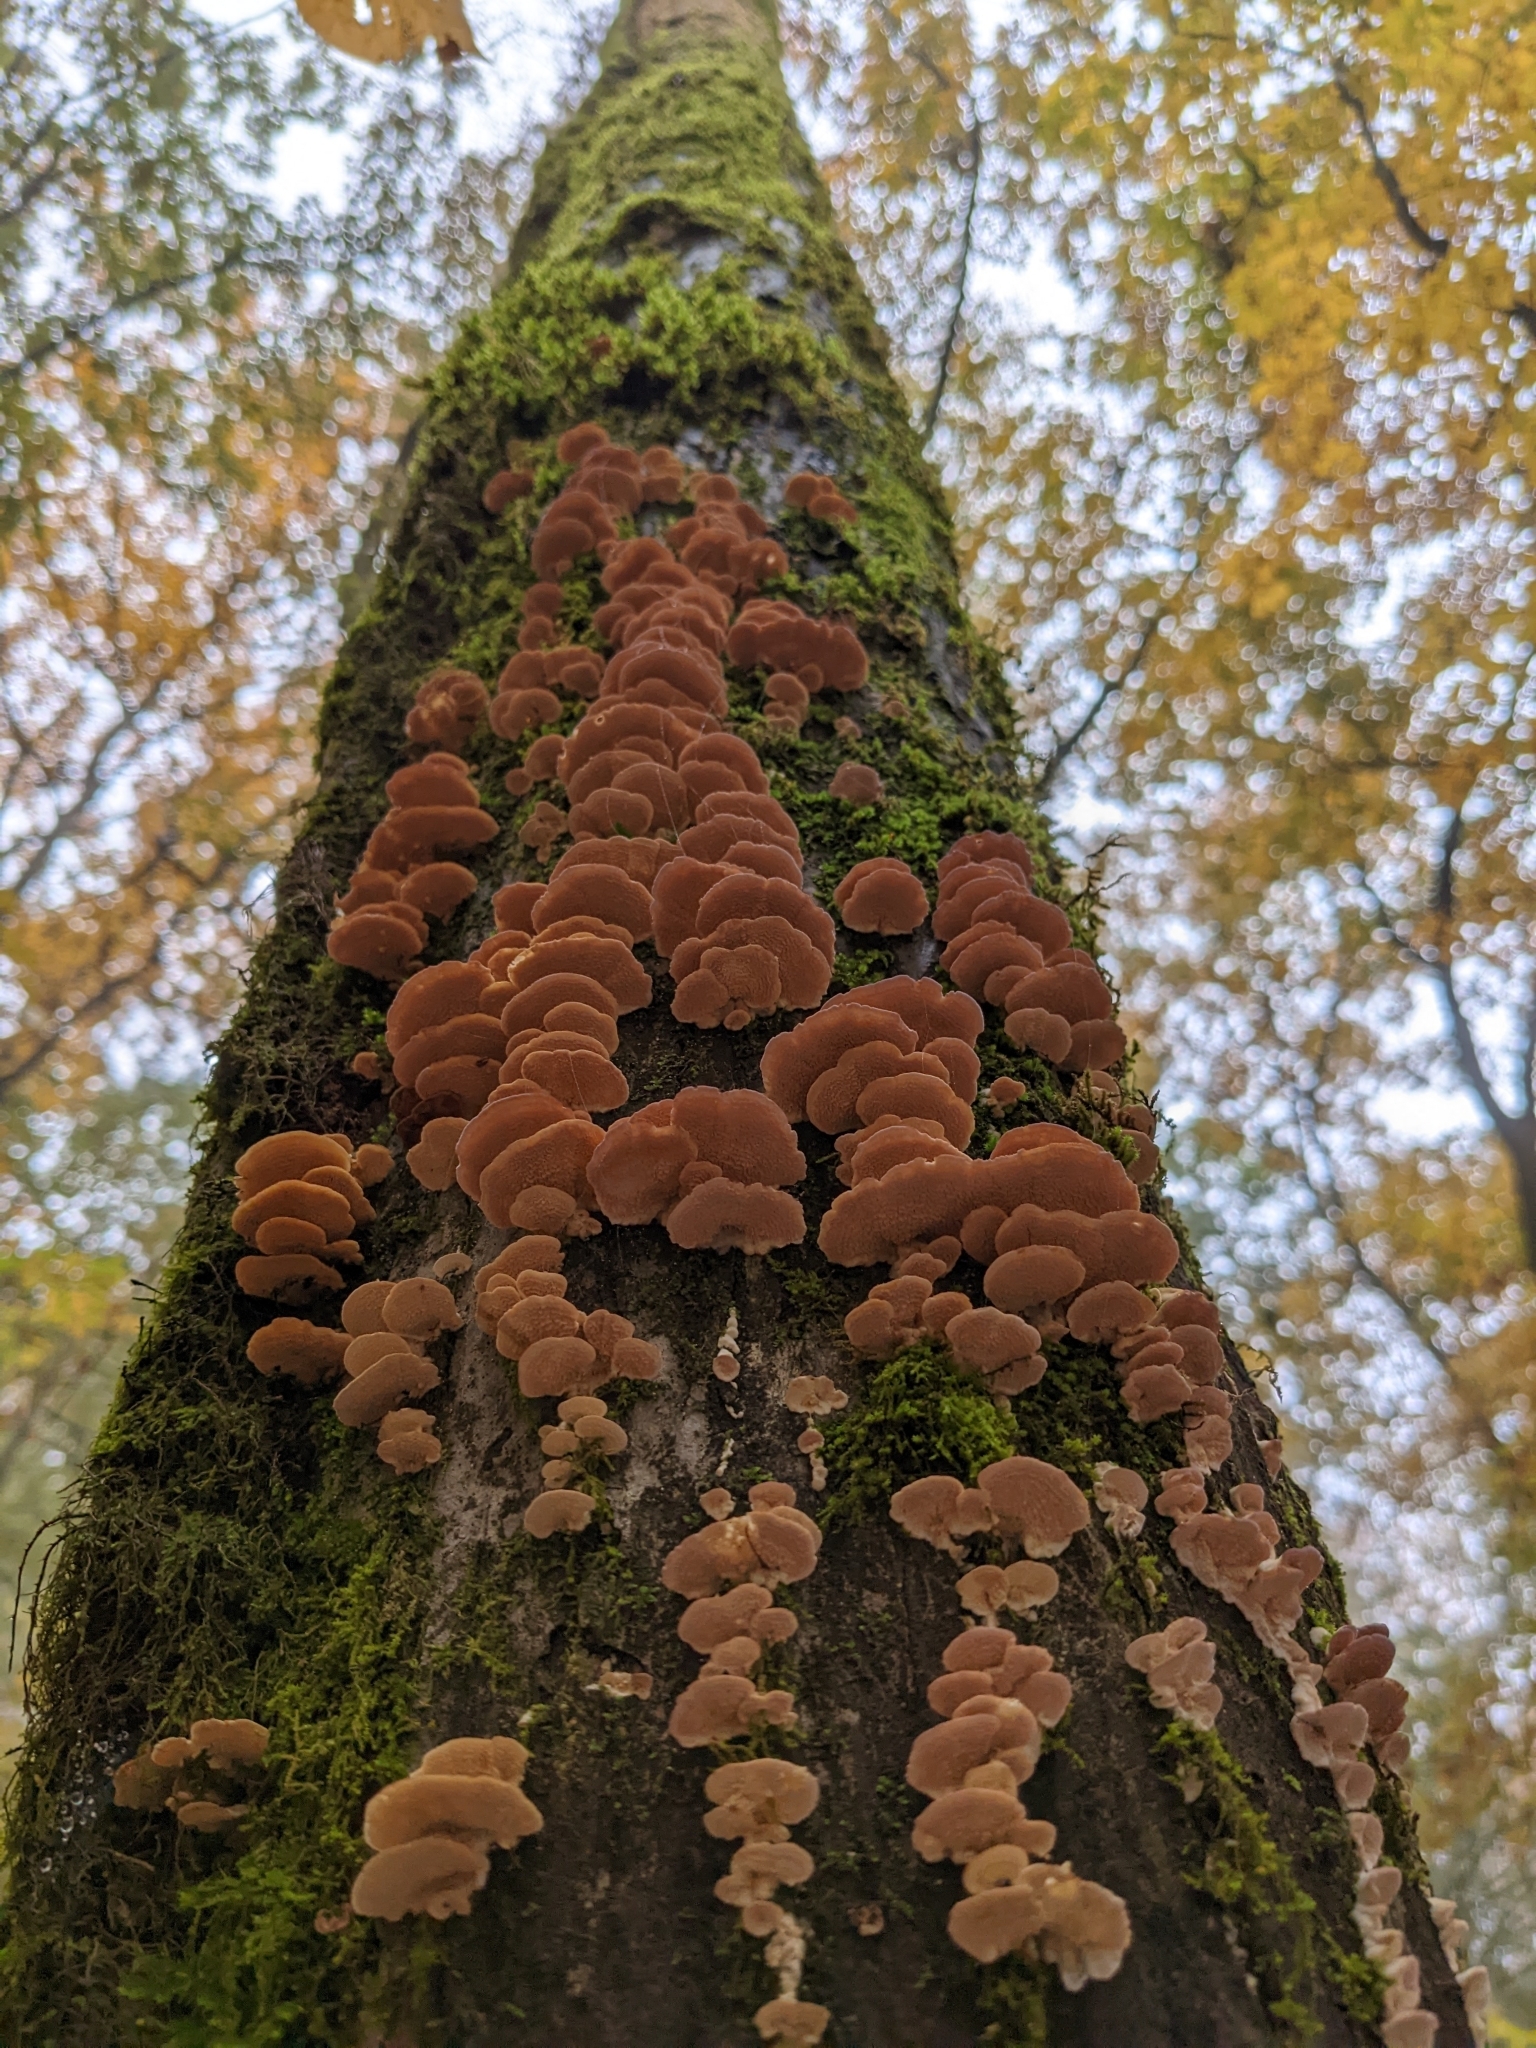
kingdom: Fungi
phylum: Basidiomycota
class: Agaricomycetes
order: Hymenochaetales
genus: Trichaptum
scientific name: Trichaptum biforme
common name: Violet-toothed polypore
